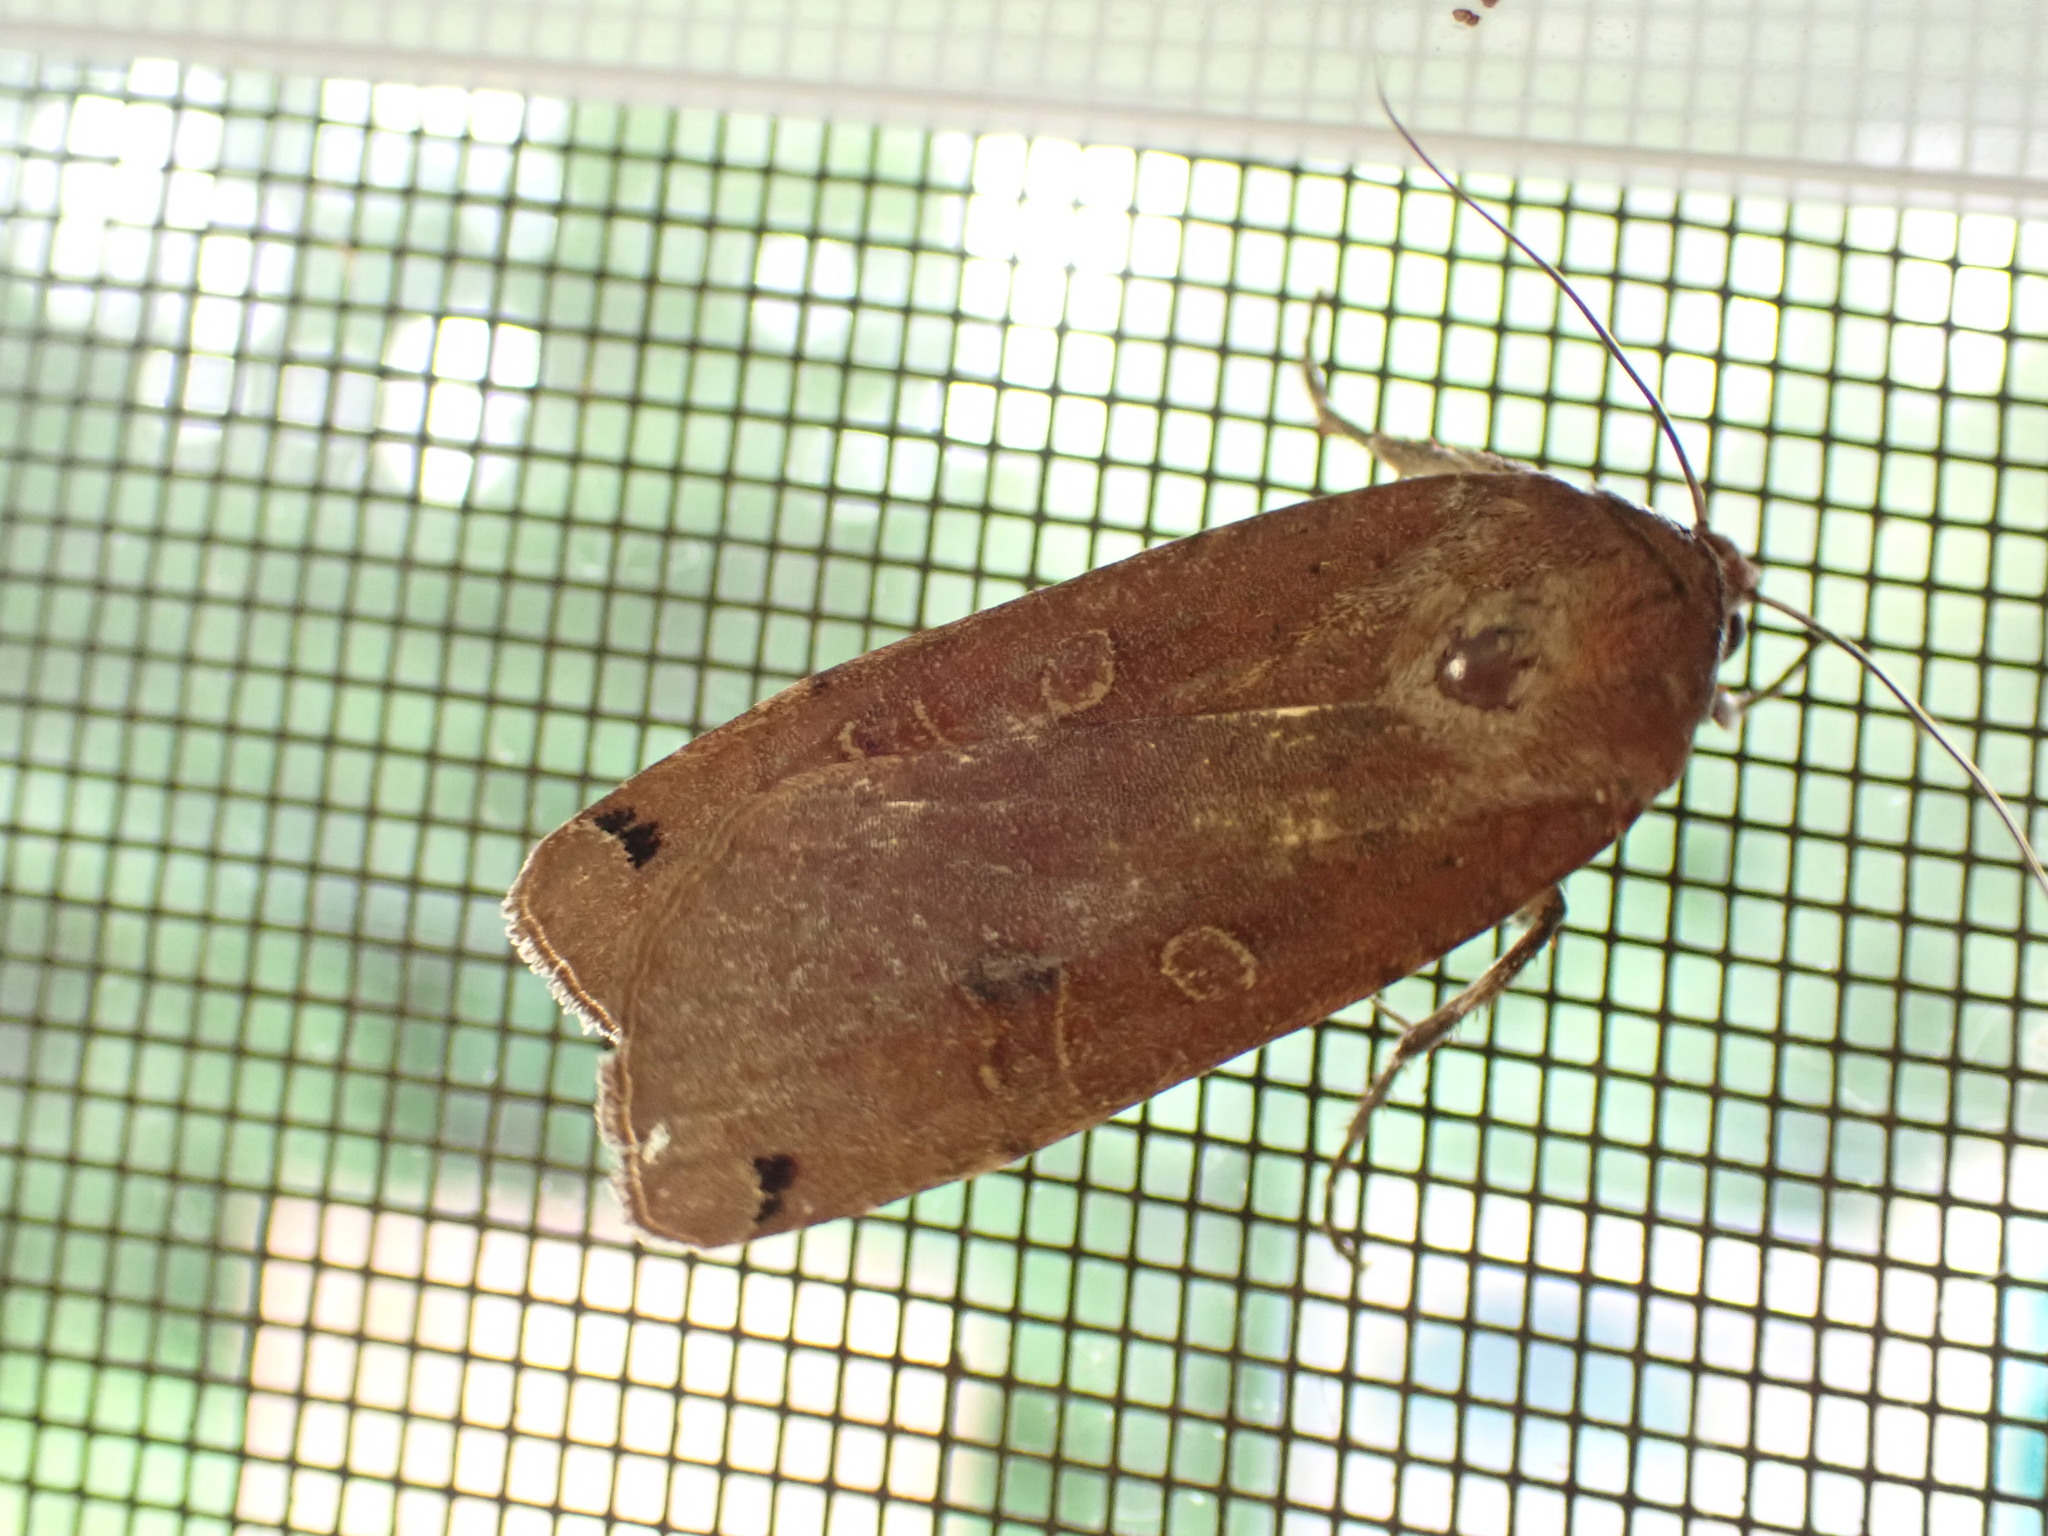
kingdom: Animalia
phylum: Arthropoda
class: Insecta
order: Lepidoptera
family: Noctuidae
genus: Noctua
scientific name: Noctua pronuba
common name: Large yellow underwing
